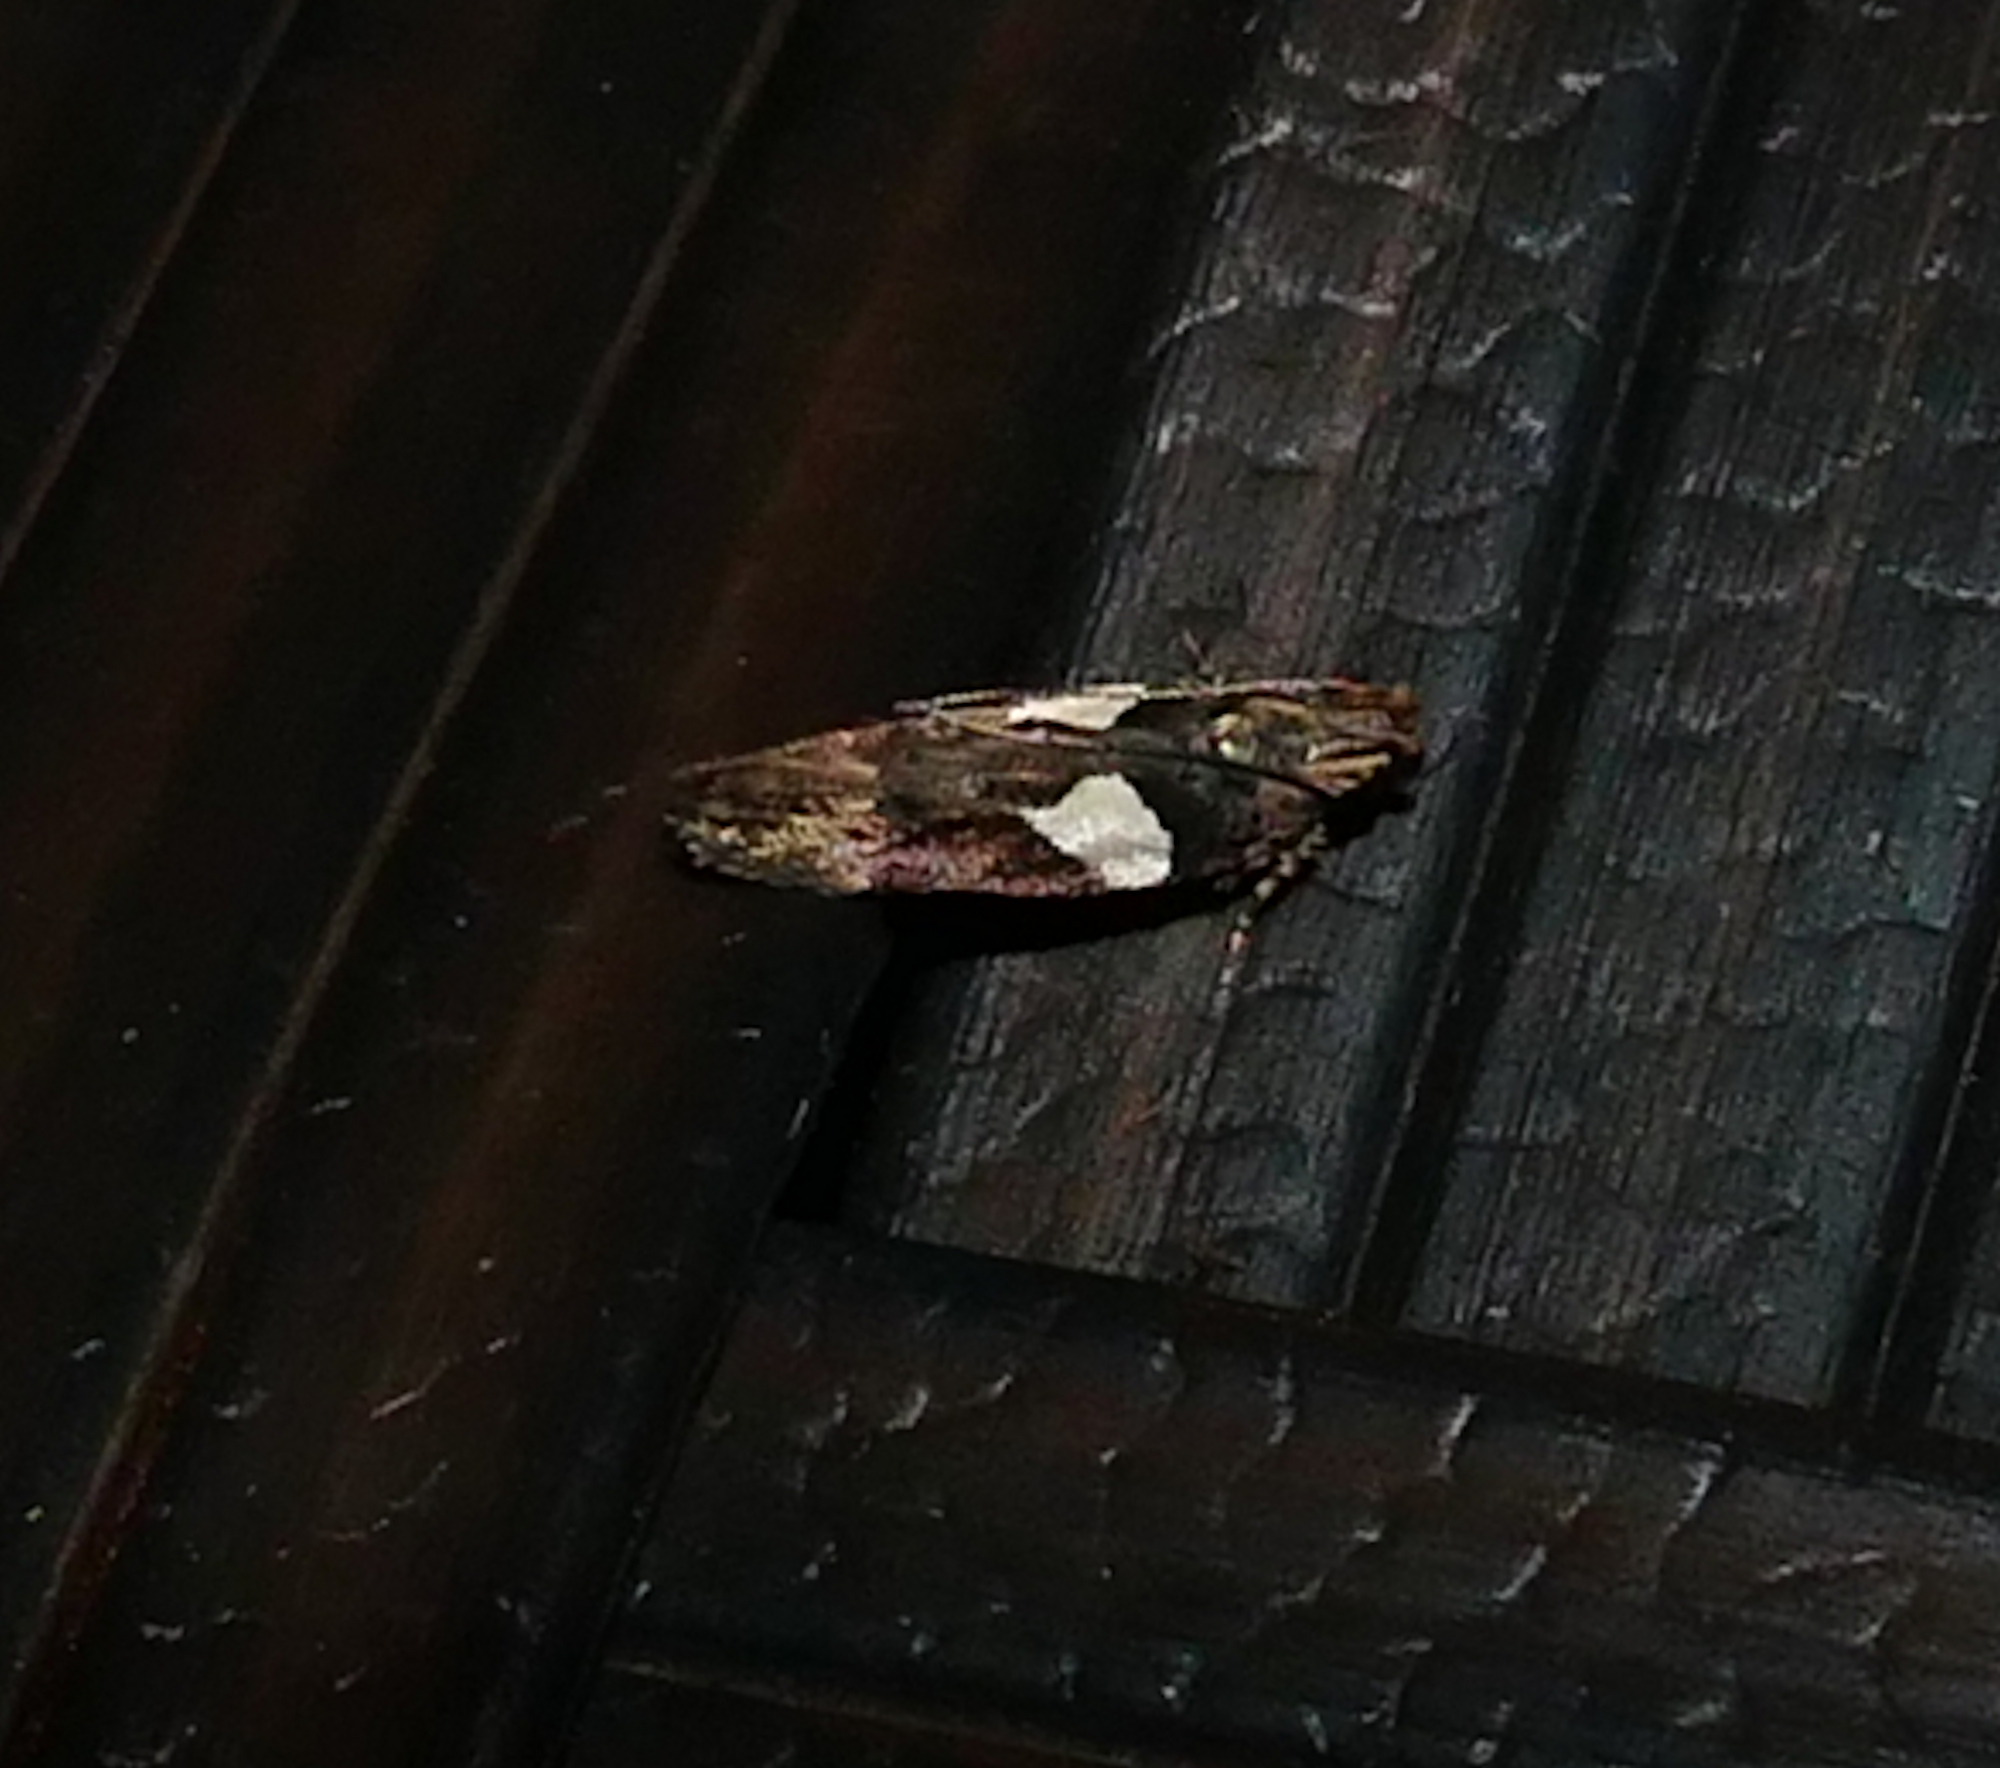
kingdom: Animalia
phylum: Arthropoda
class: Insecta
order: Lepidoptera
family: Gelechiidae
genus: Friseria
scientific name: Friseria acaciella
